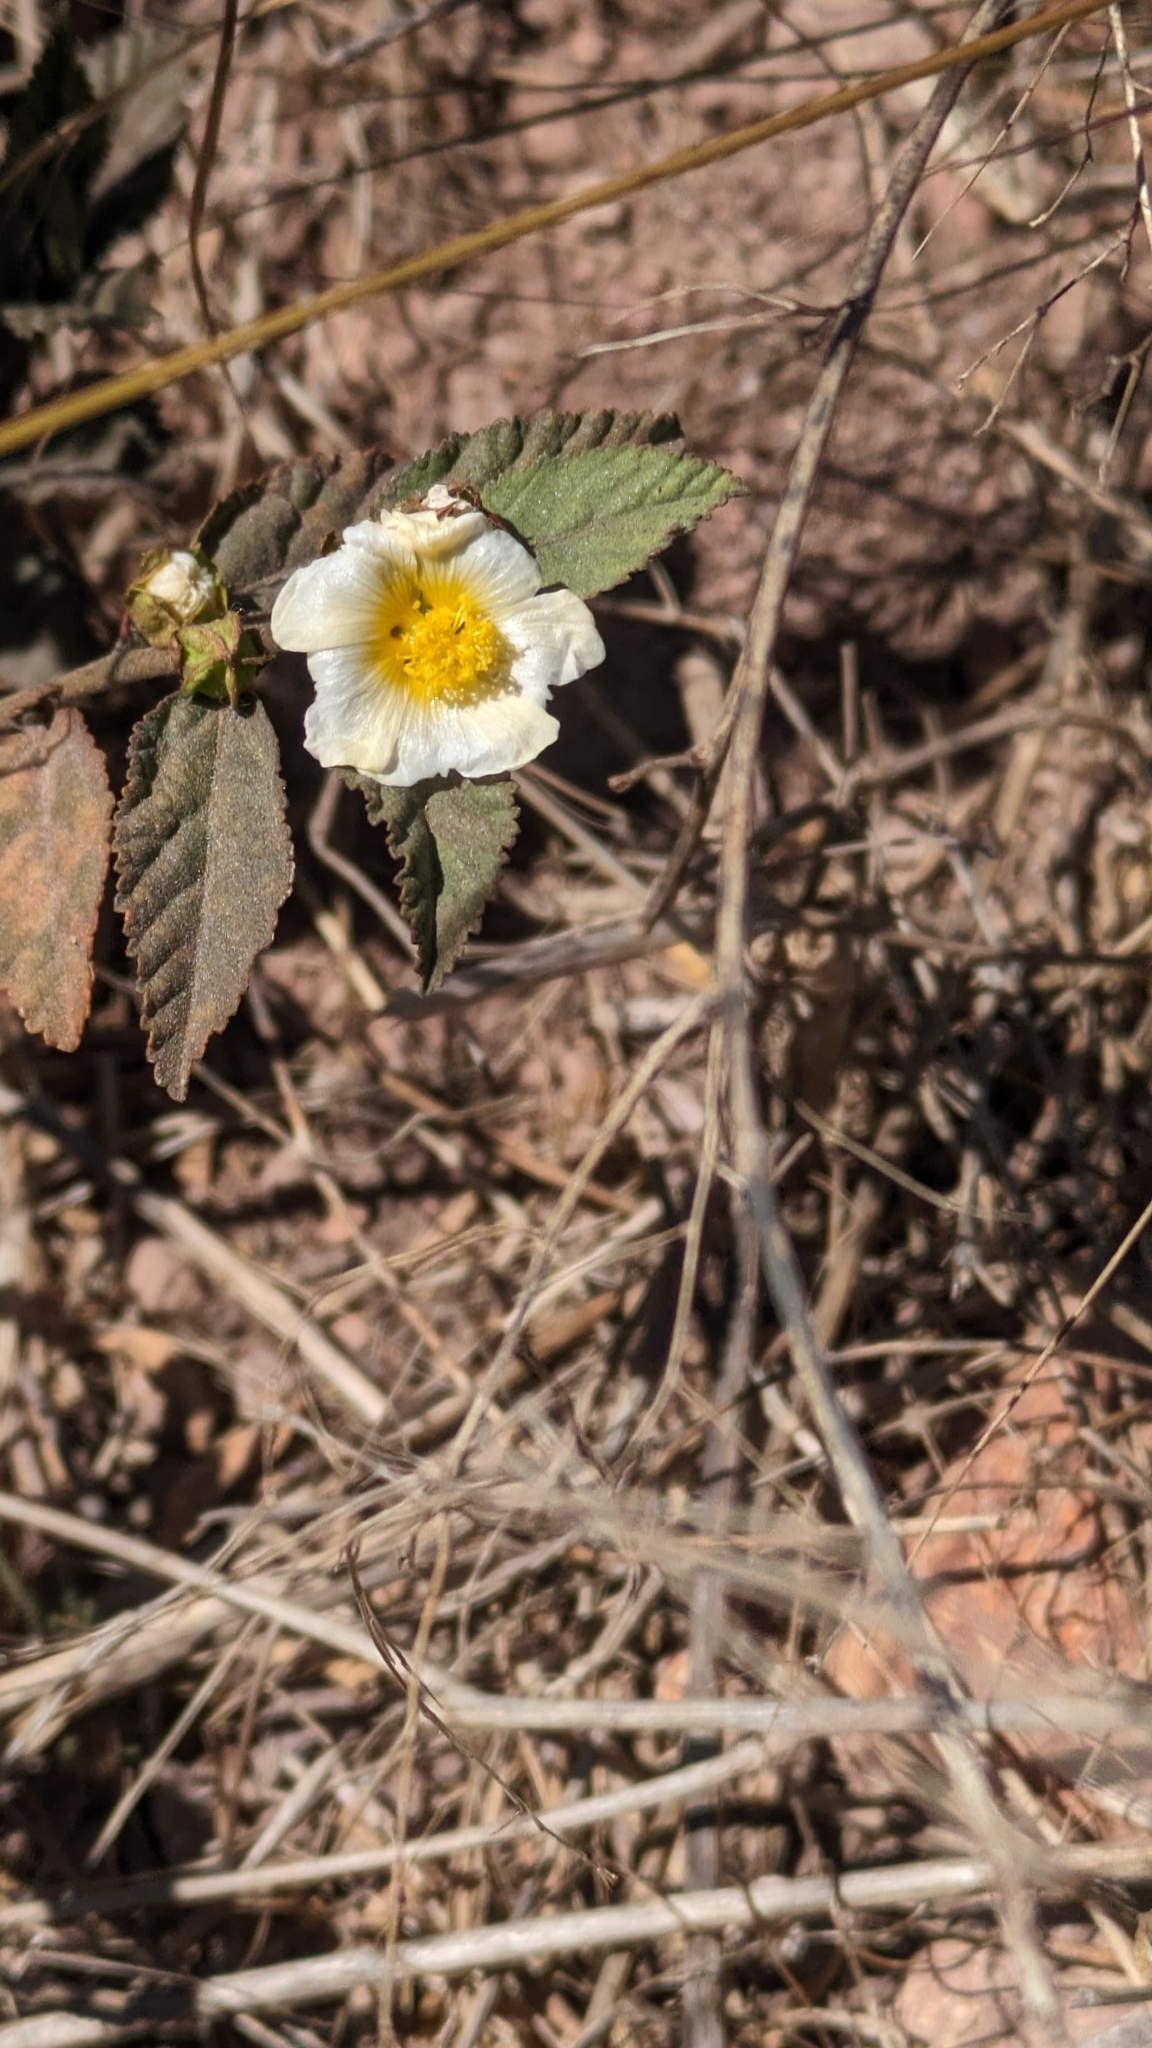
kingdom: Plantae
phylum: Tracheophyta
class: Magnoliopsida
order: Malvales
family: Malvaceae
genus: Sida
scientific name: Sida acuta
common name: Common wireweed
